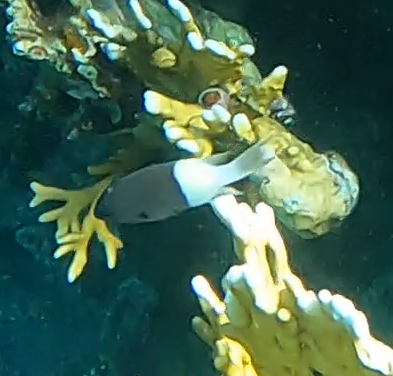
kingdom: Animalia
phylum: Chordata
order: Perciformes
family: Pomacentridae
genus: Chromis
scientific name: Chromis dimidiata
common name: Half-and-half chromis
